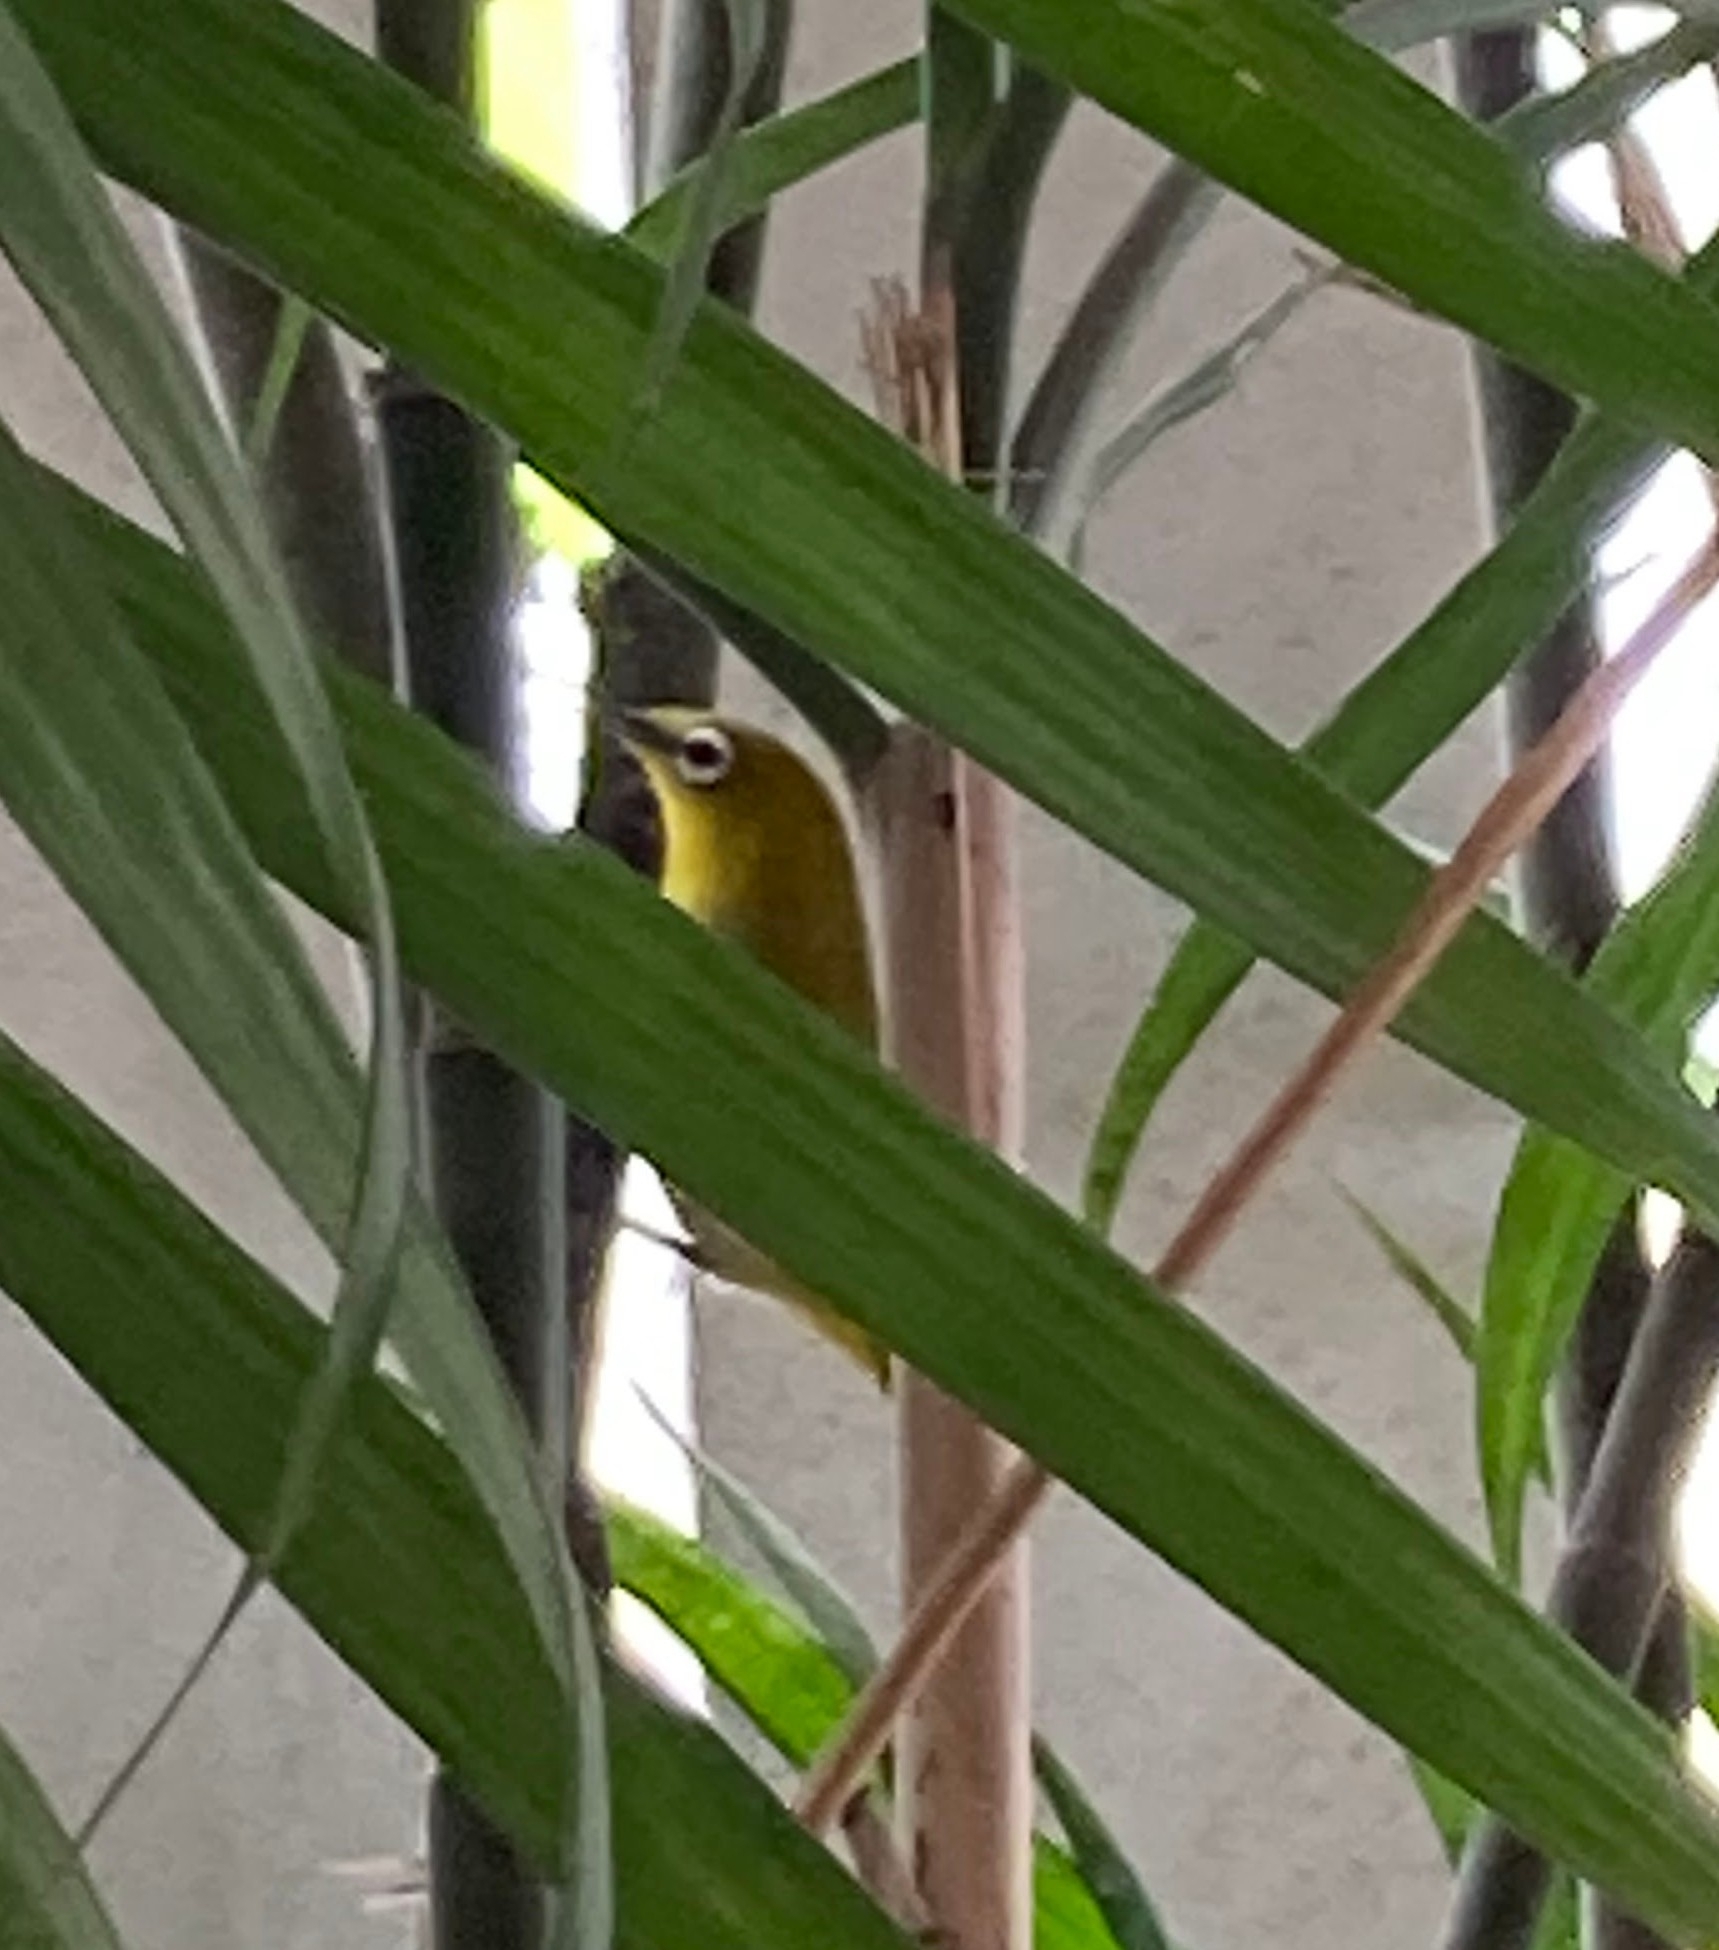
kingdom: Animalia
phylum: Chordata
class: Aves
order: Passeriformes
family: Zosteropidae
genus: Zosterops
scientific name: Zosterops palpebrosus
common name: Oriental white-eye
